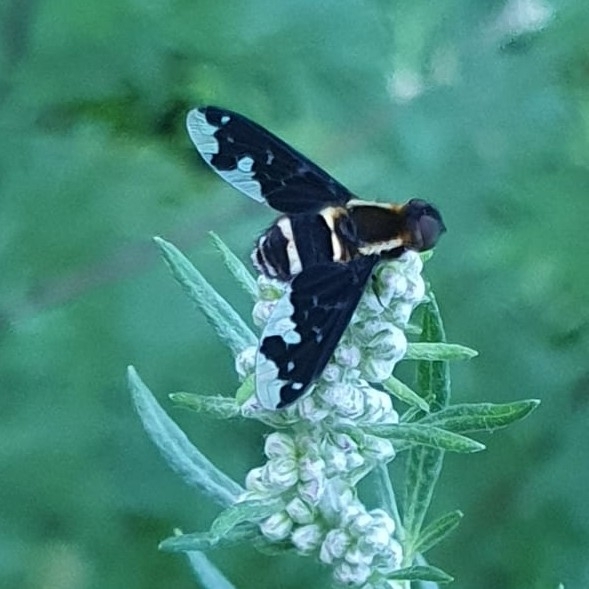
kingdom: Animalia
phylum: Arthropoda
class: Insecta
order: Diptera
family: Bombyliidae
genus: Hemipenthes
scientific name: Hemipenthes maura
